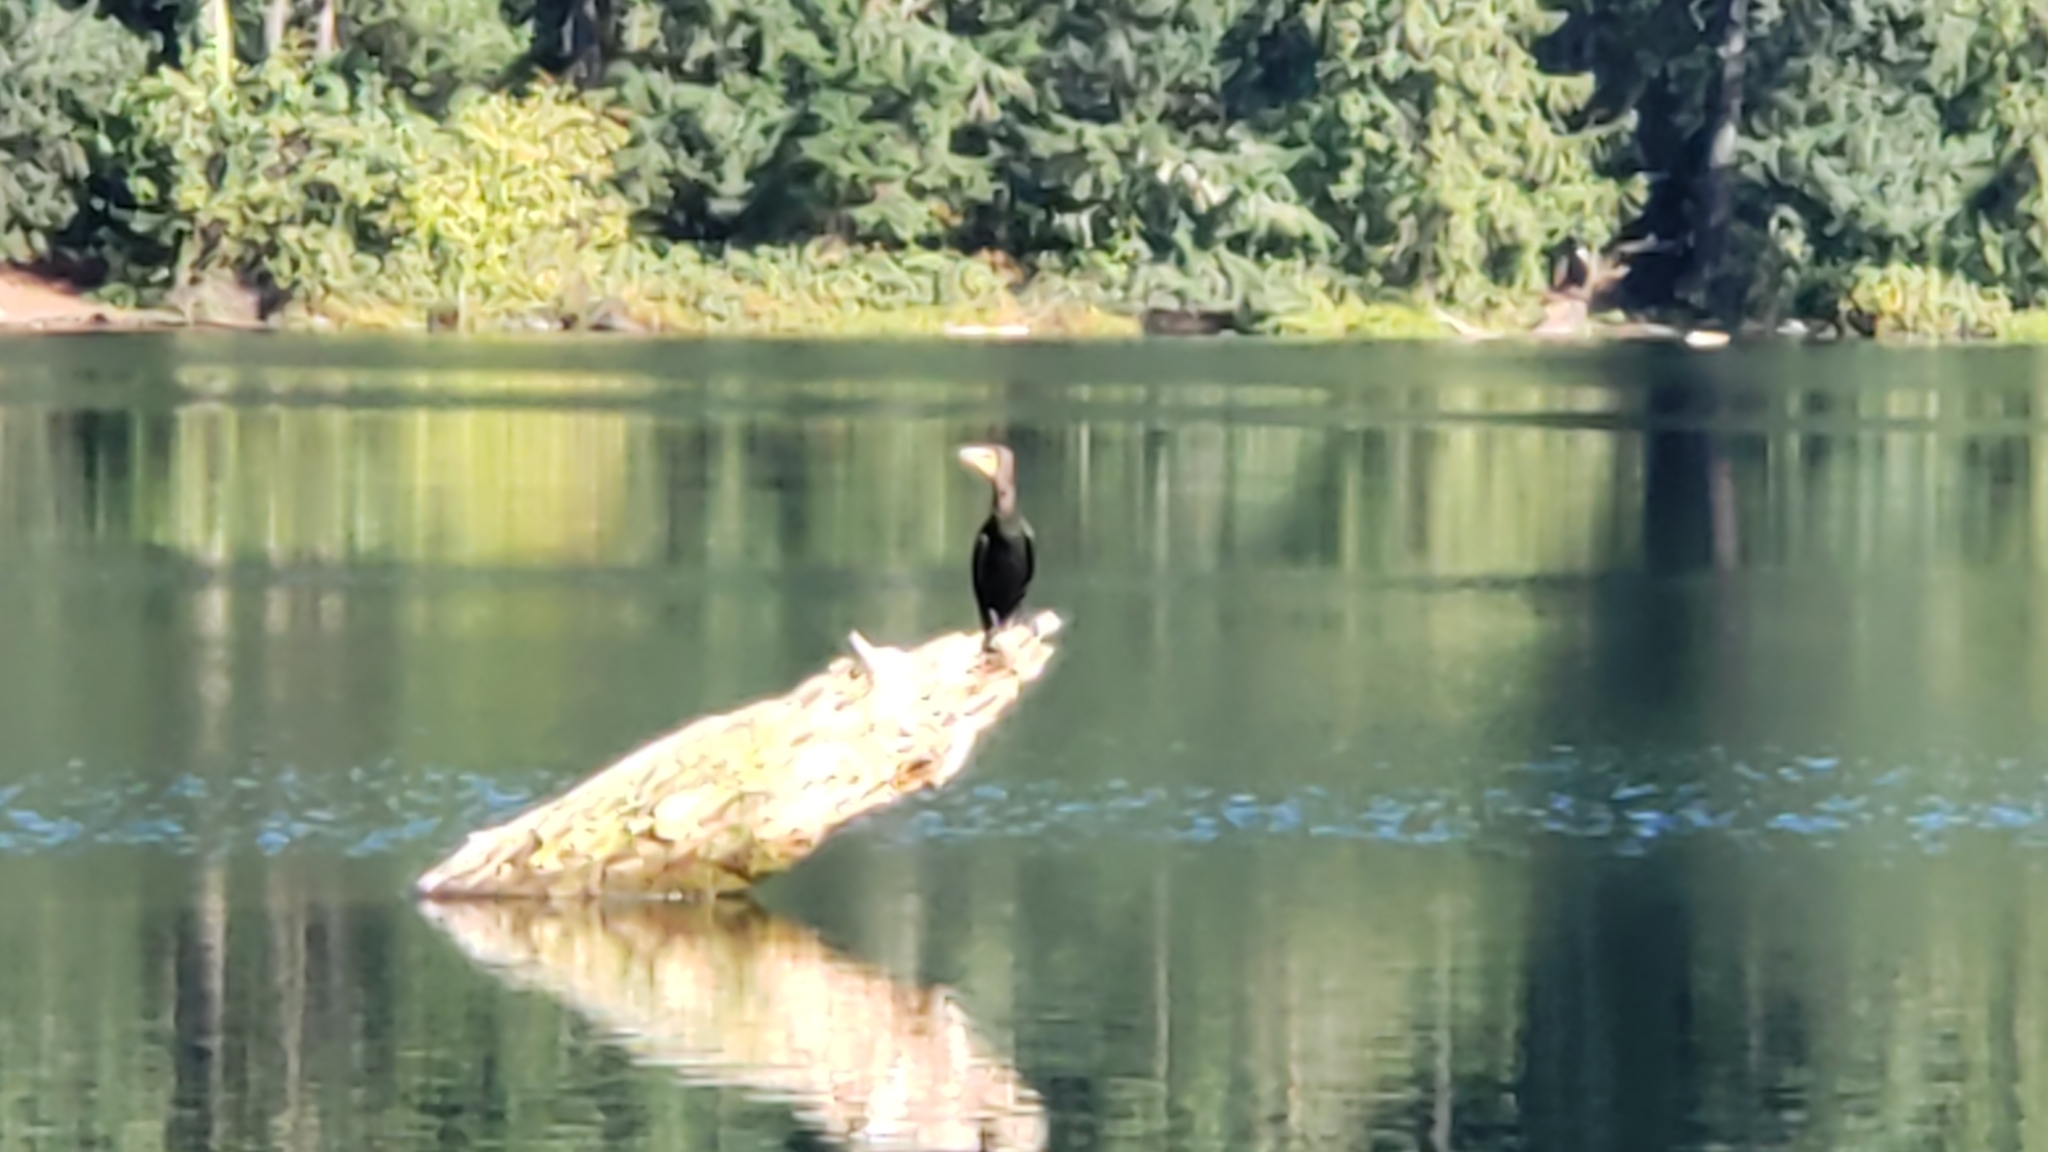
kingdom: Animalia
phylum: Chordata
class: Aves
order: Suliformes
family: Phalacrocoracidae
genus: Phalacrocorax
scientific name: Phalacrocorax auritus
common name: Double-crested cormorant
